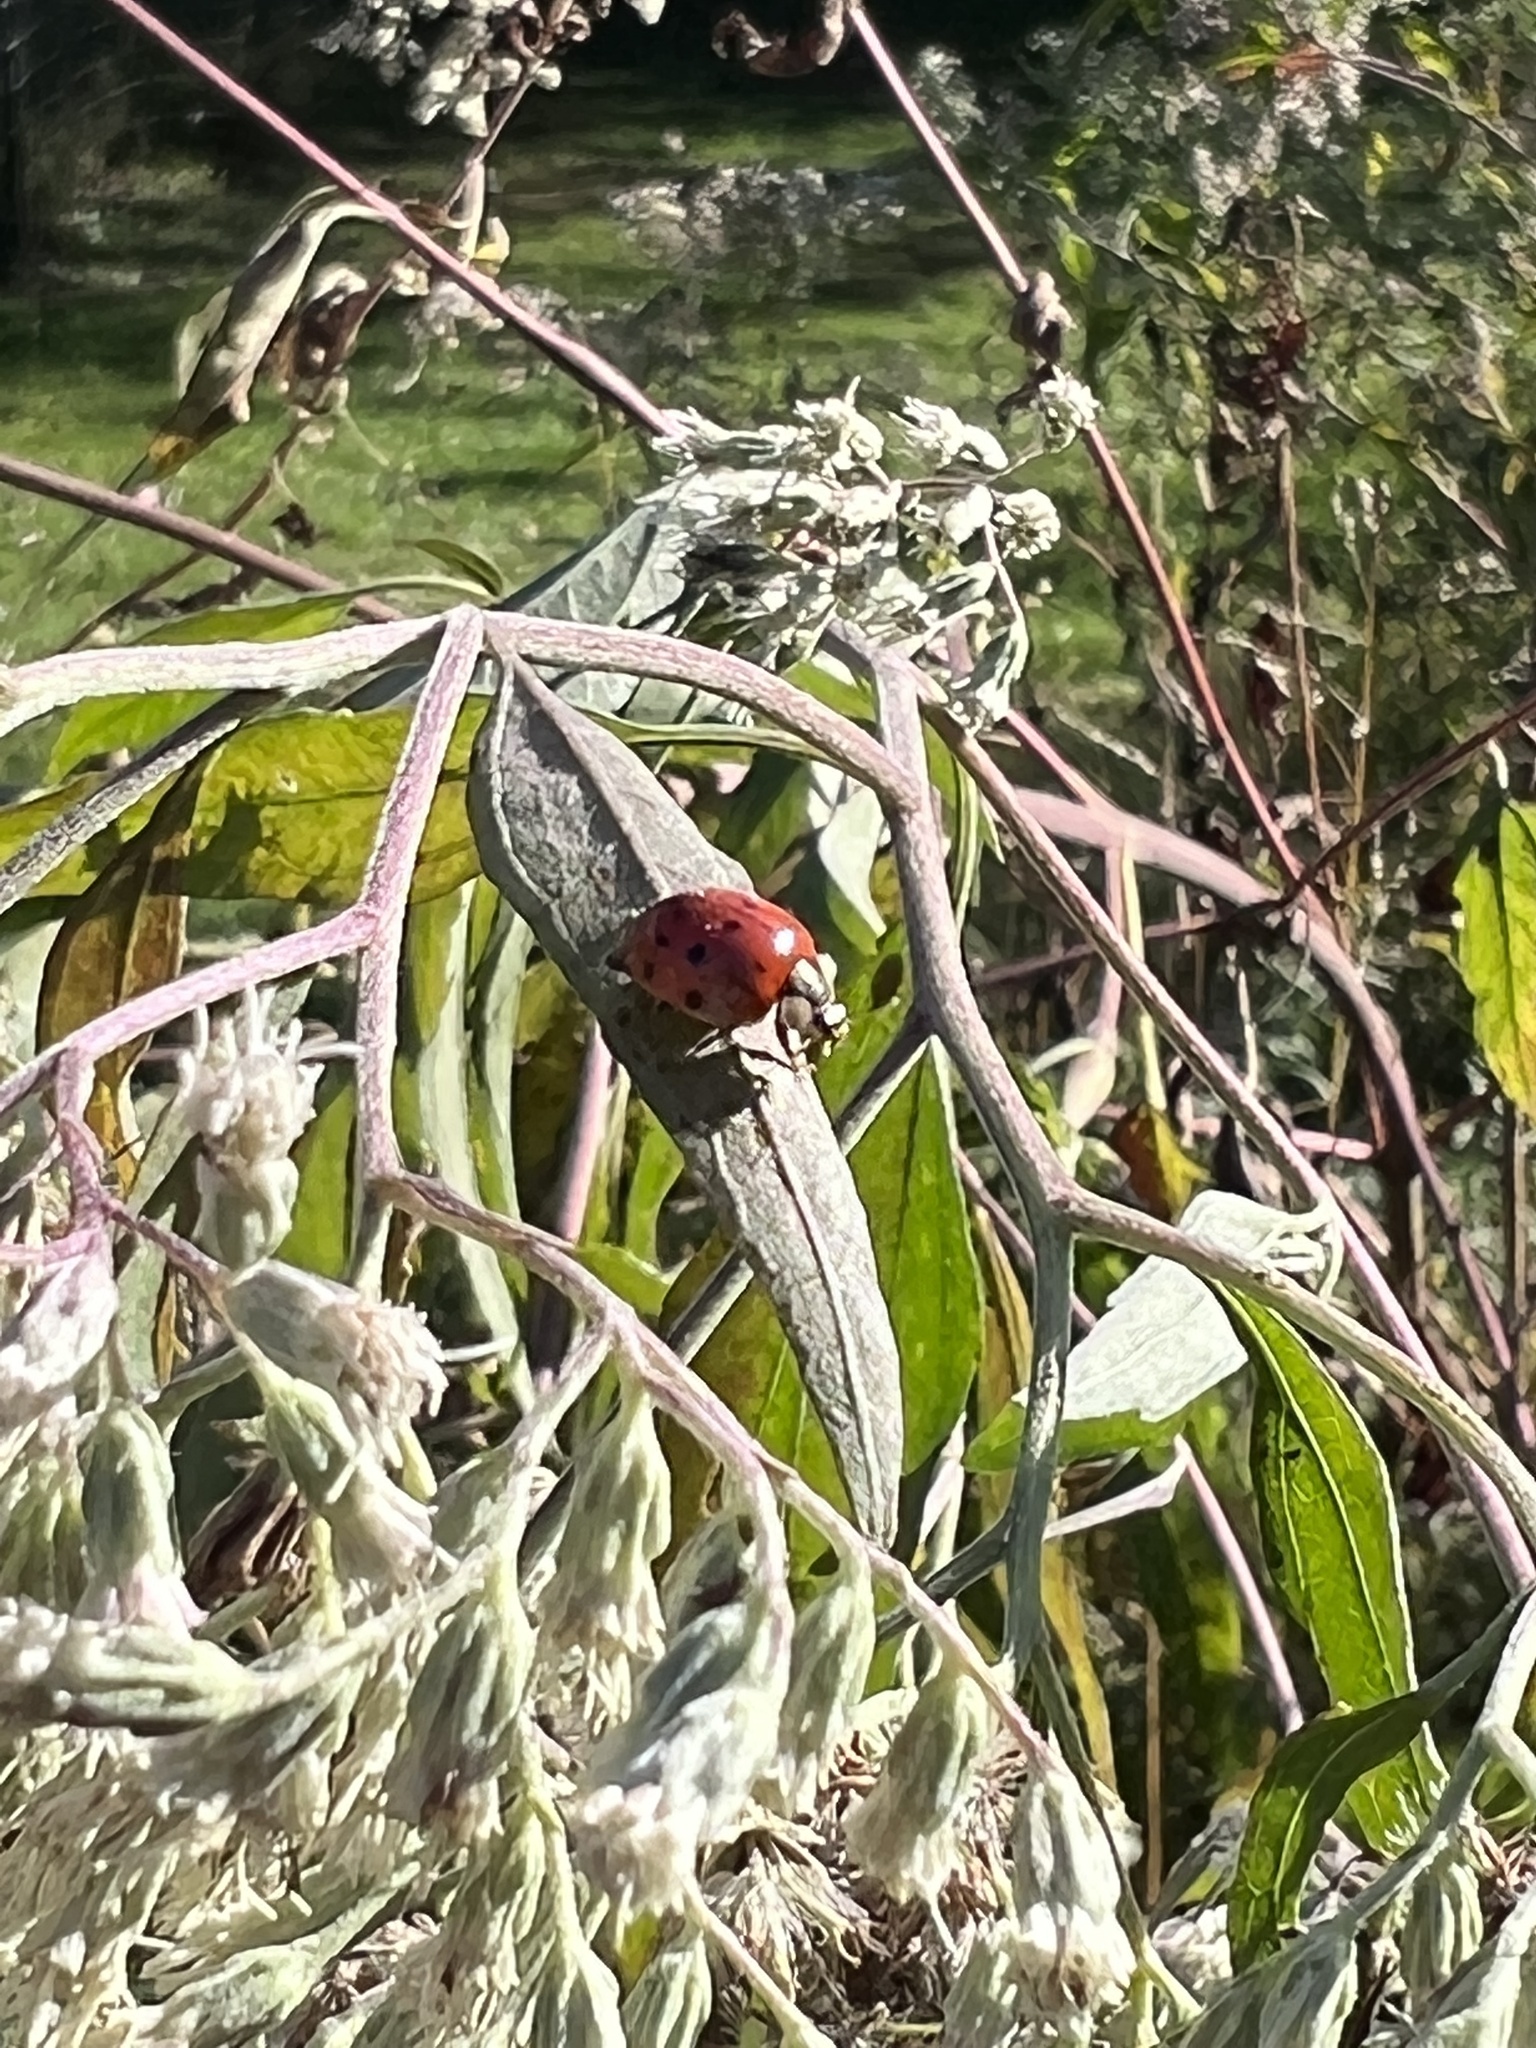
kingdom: Animalia
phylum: Arthropoda
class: Insecta
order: Coleoptera
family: Coccinellidae
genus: Harmonia
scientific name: Harmonia axyridis
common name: Harlequin ladybird
